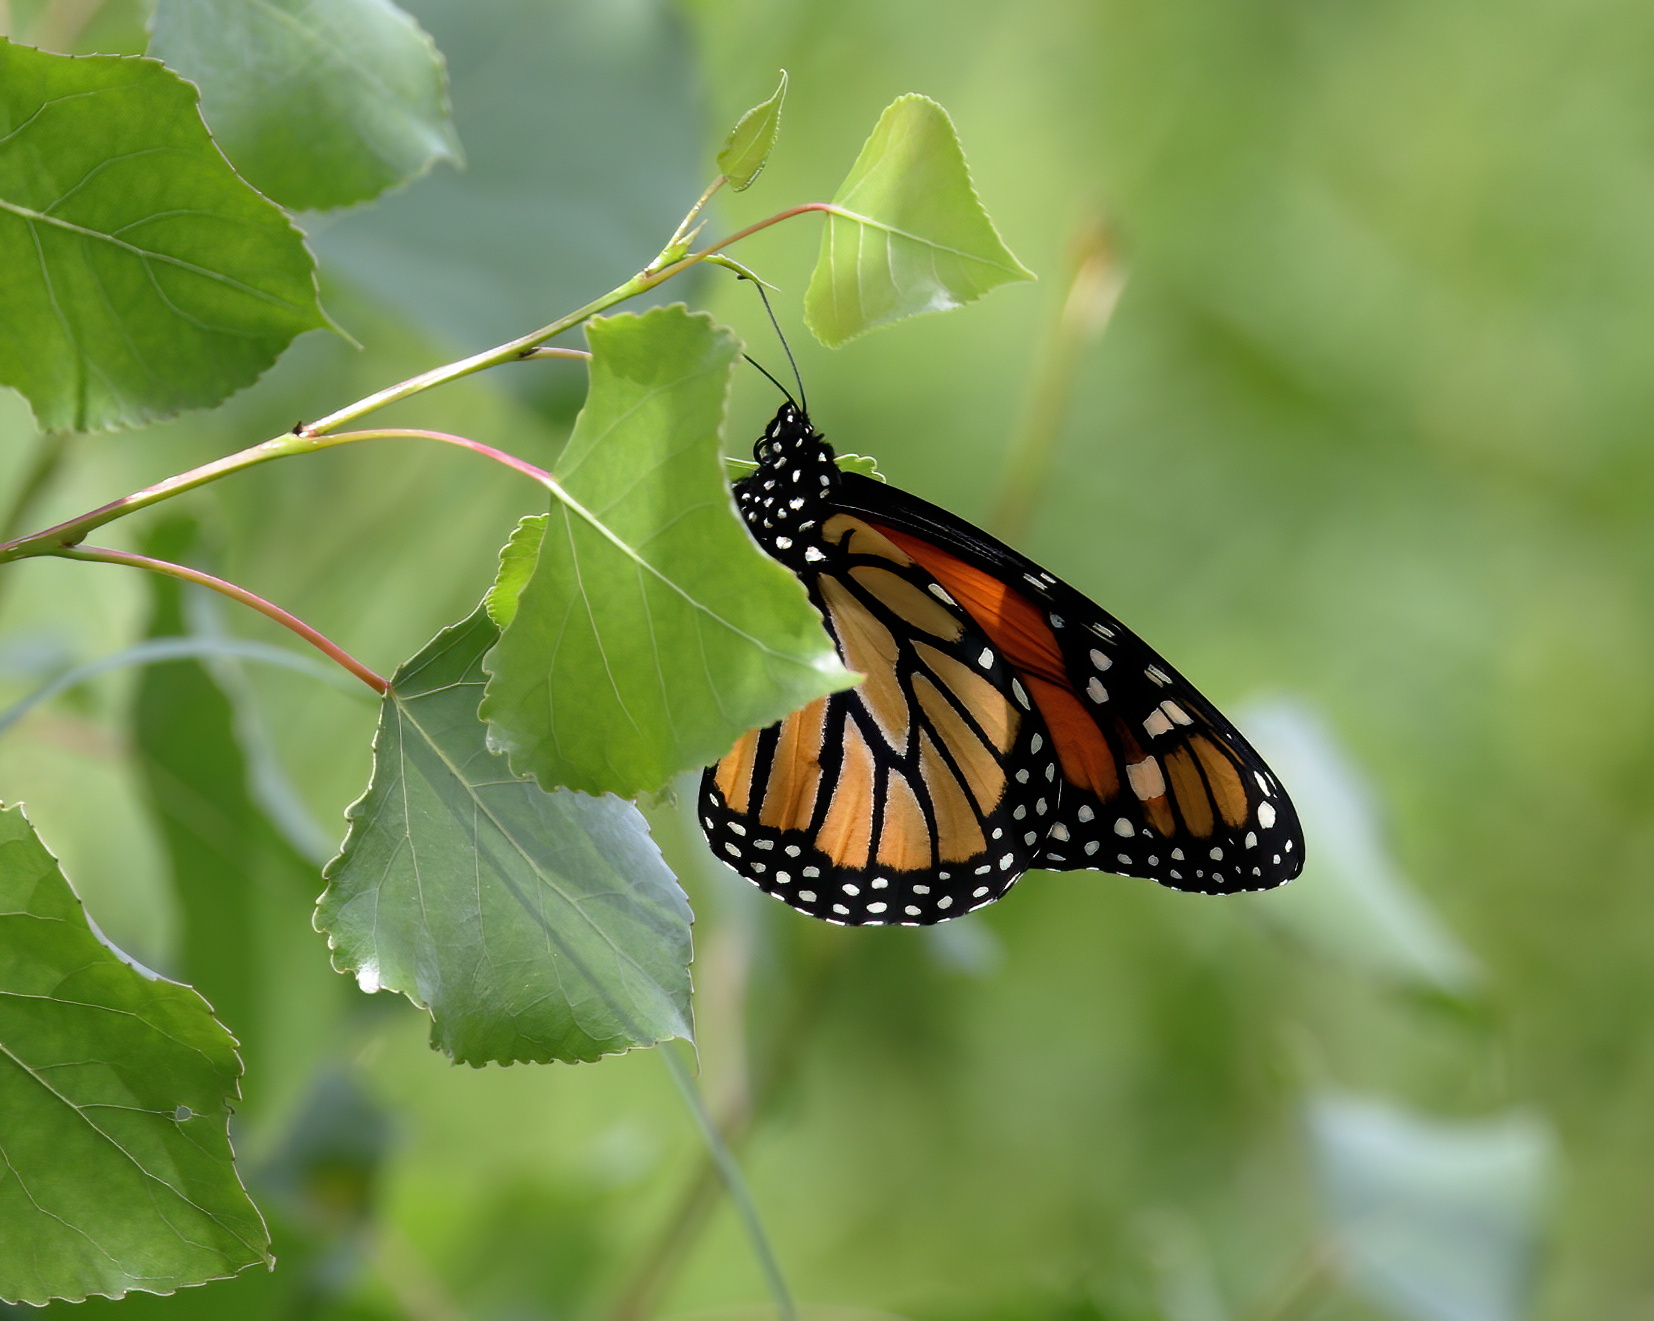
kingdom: Animalia
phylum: Arthropoda
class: Insecta
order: Lepidoptera
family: Nymphalidae
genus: Danaus
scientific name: Danaus plexippus
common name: Monarch
